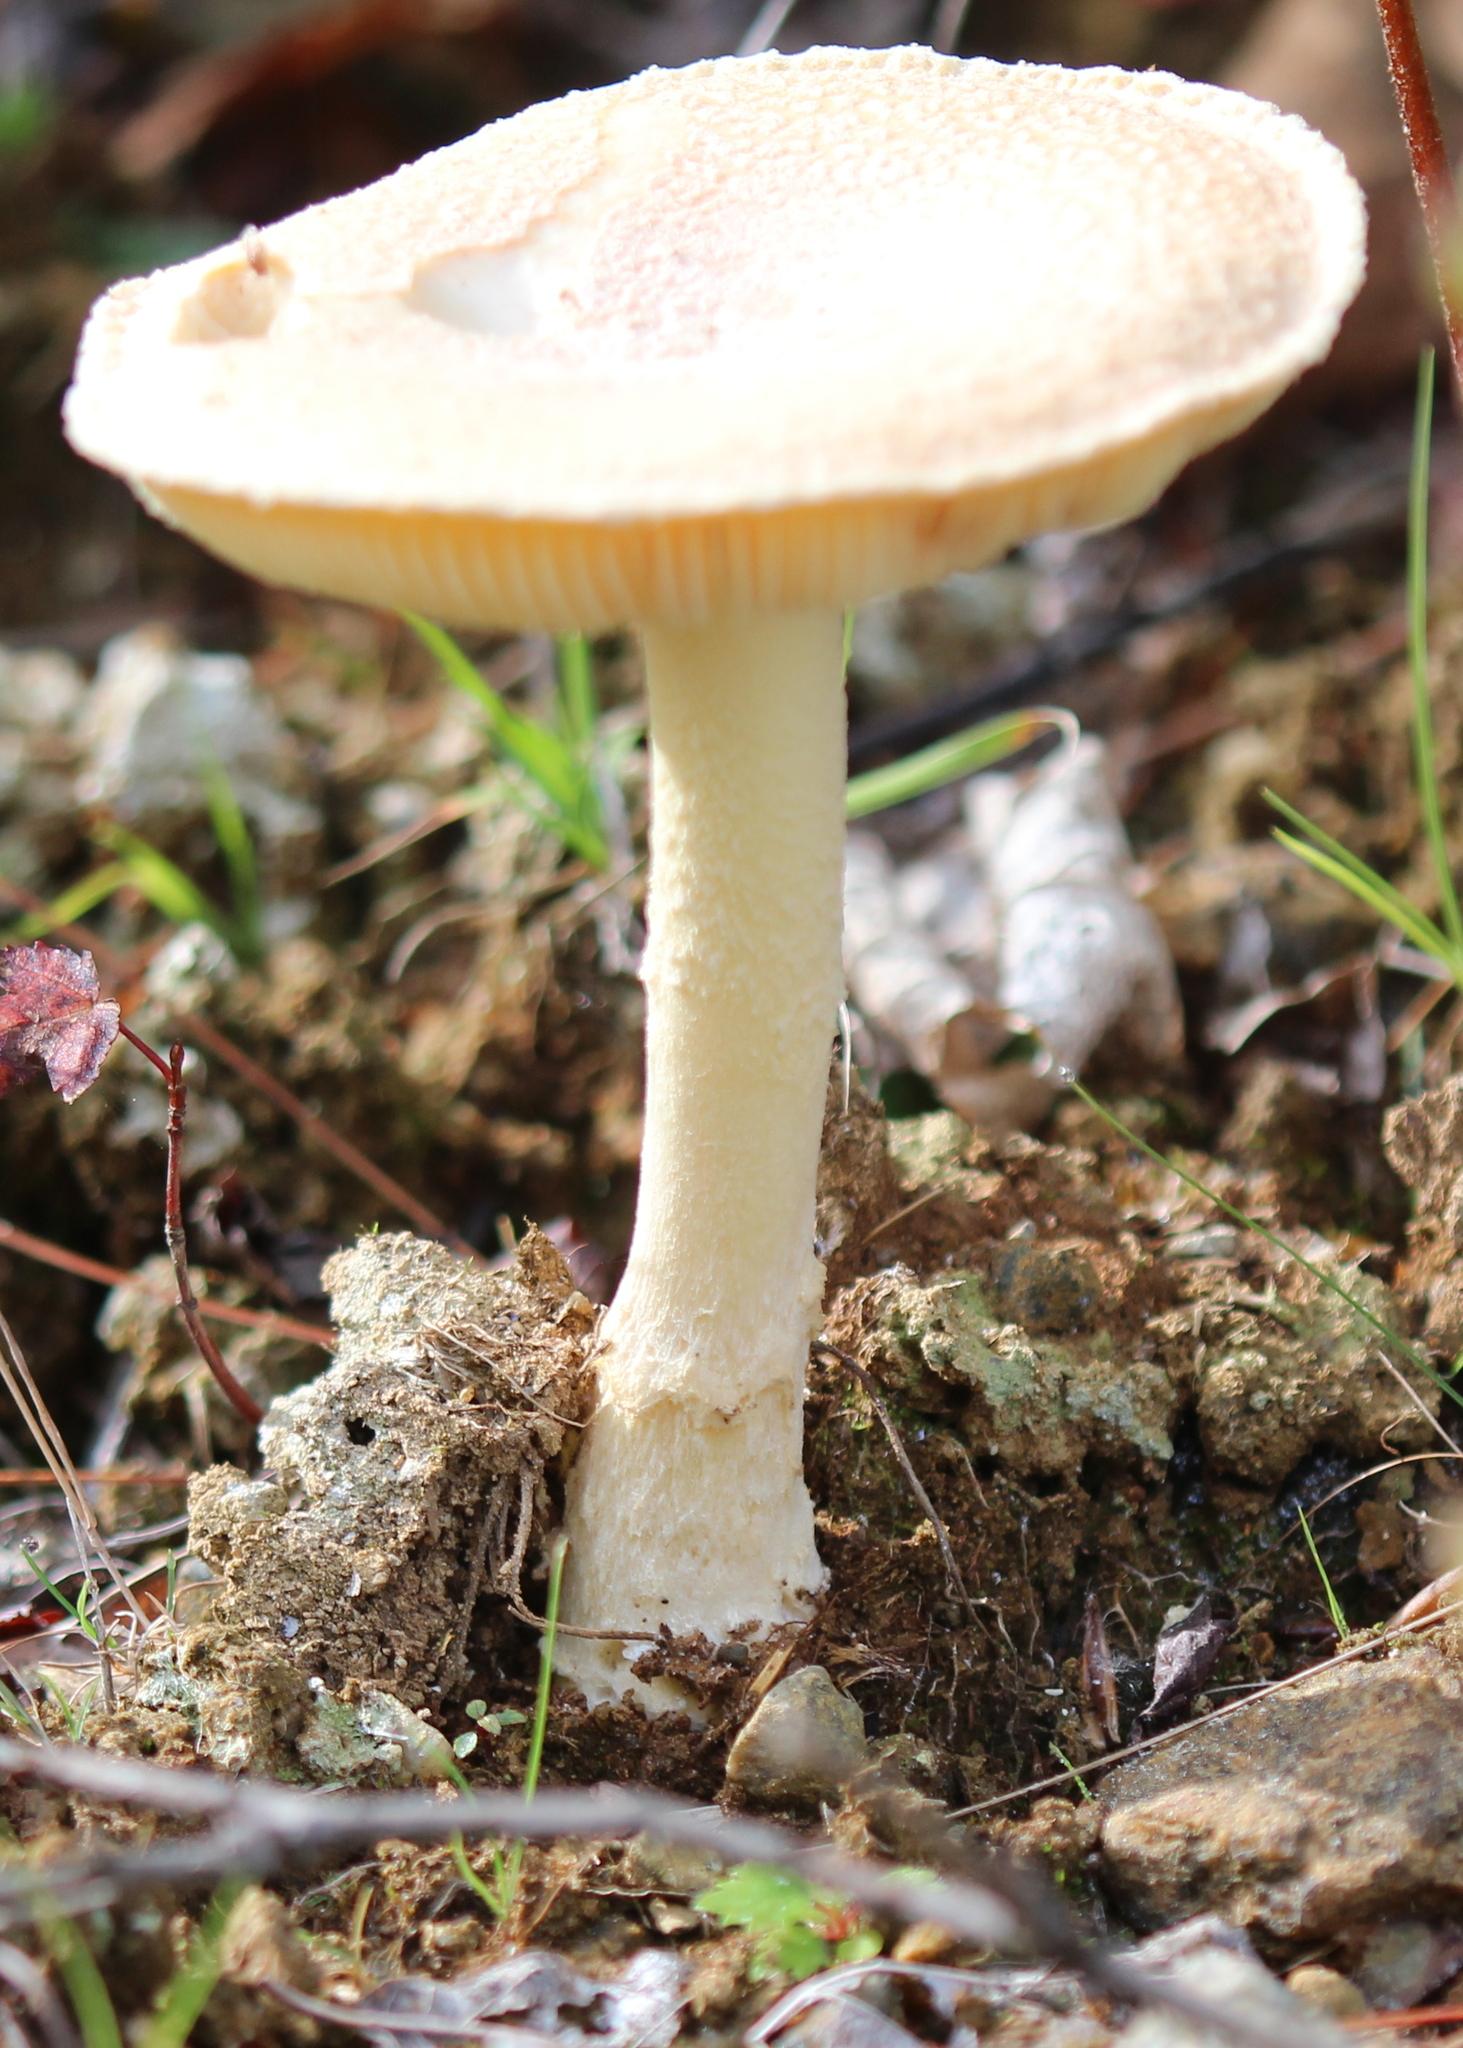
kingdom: Fungi
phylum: Basidiomycota
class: Agaricomycetes
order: Agaricales
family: Amanitaceae
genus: Amanita
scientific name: Amanita crenulata
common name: Poison champagne amanita
